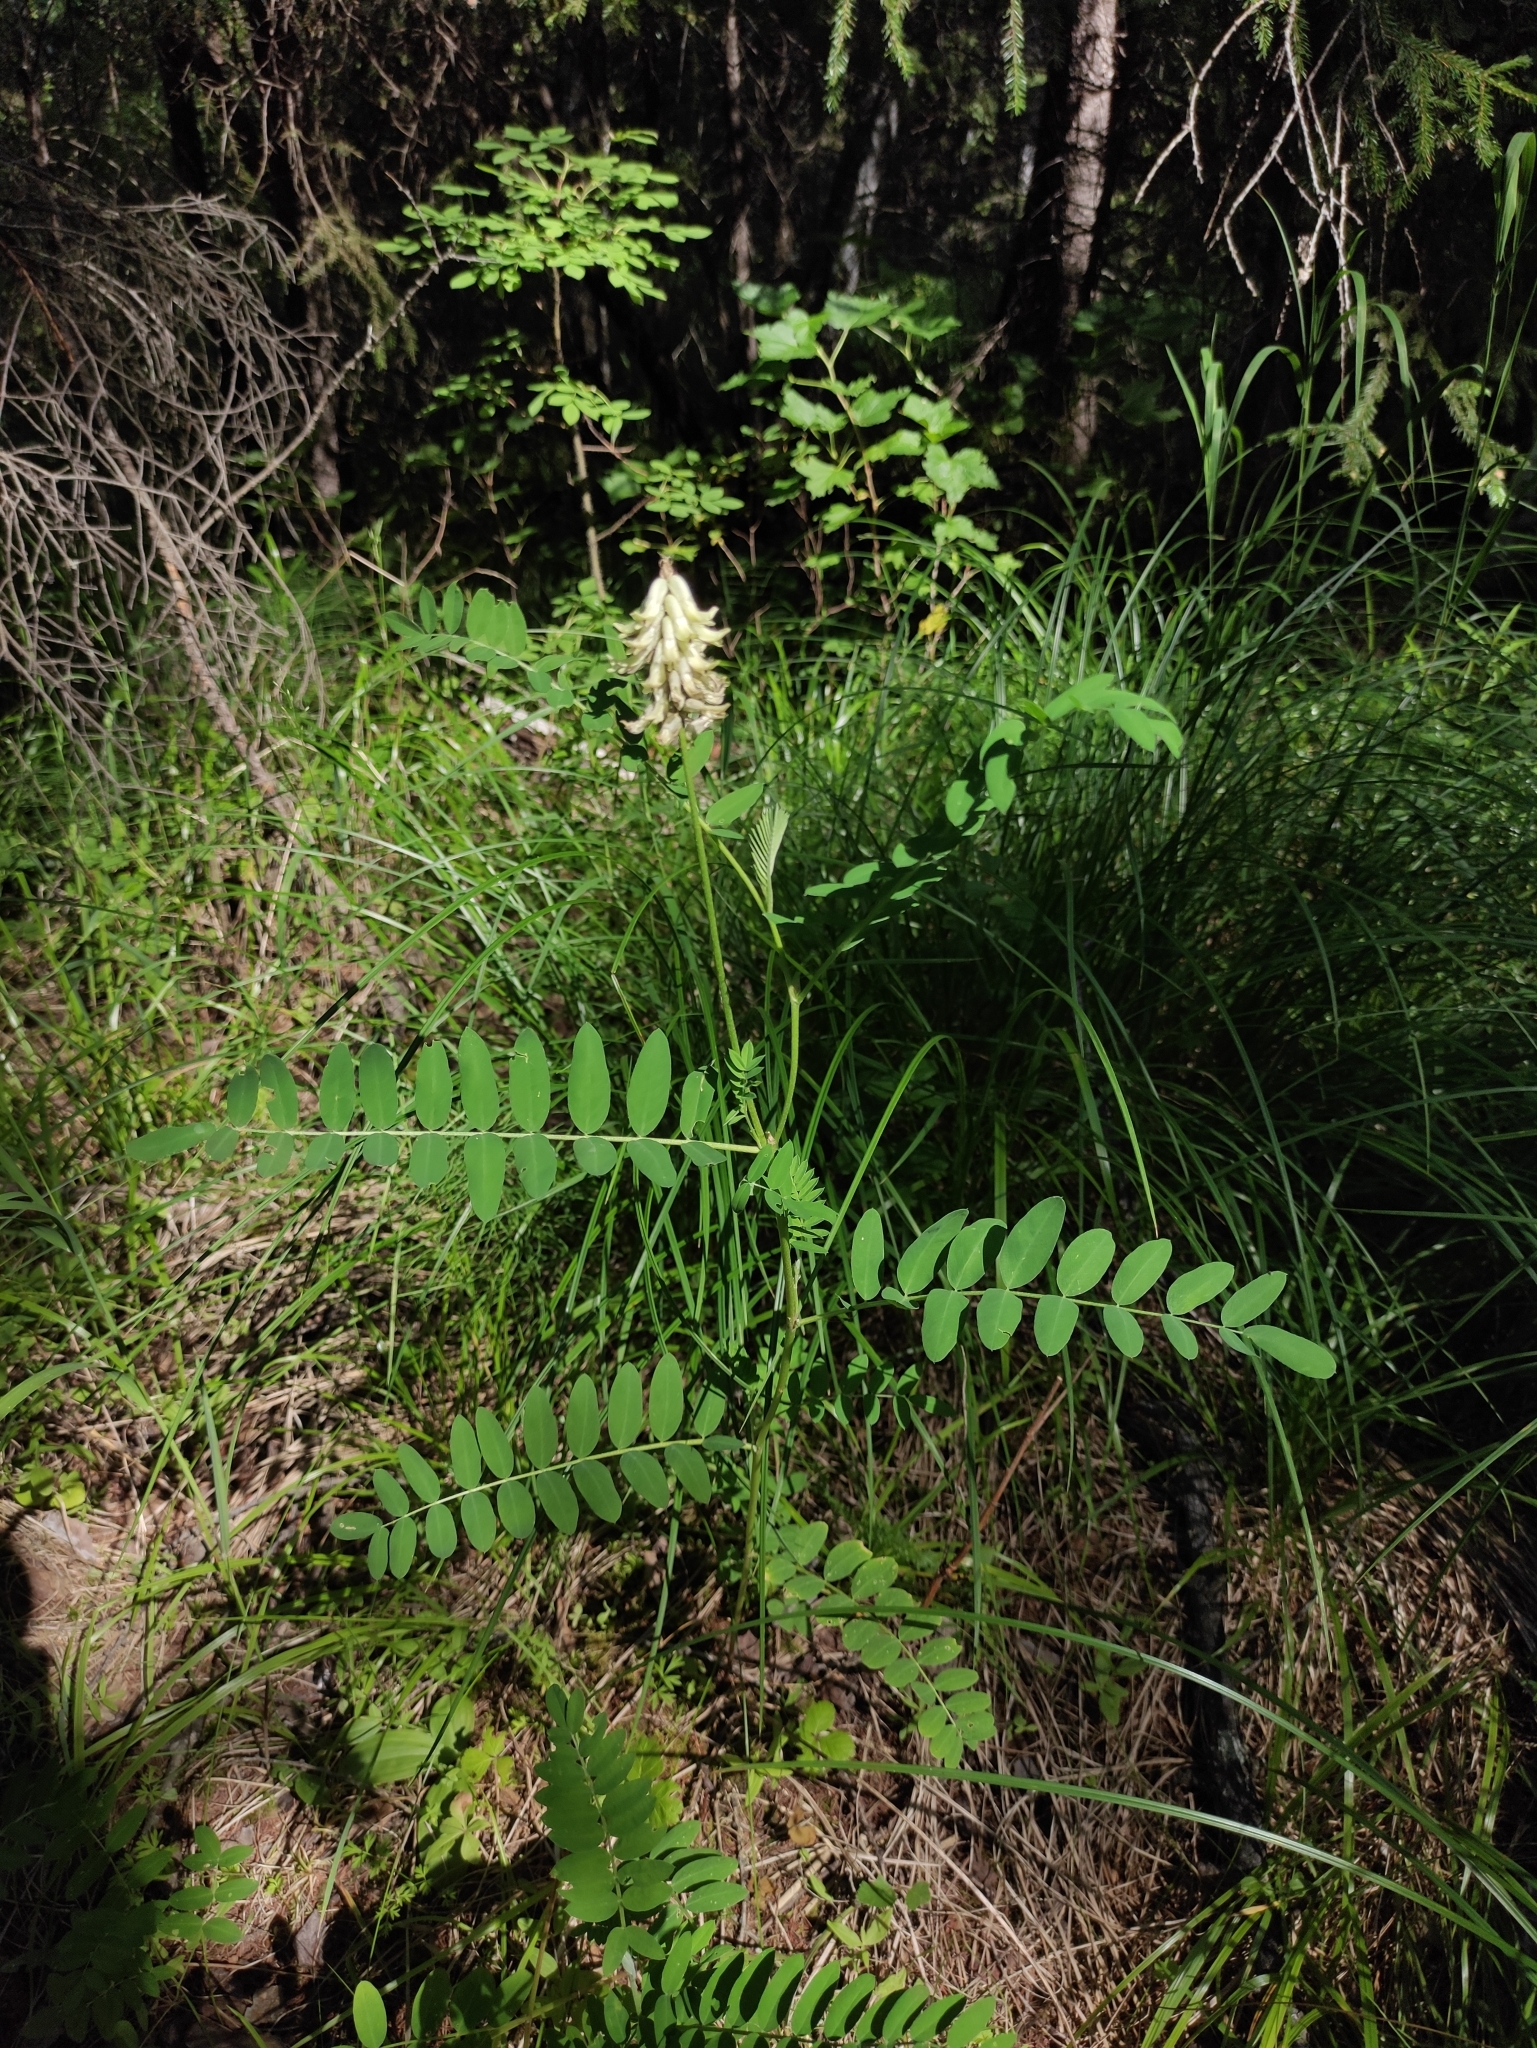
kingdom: Plantae
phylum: Tracheophyta
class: Magnoliopsida
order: Fabales
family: Fabaceae
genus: Astragalus
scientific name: Astragalus uliginosus
